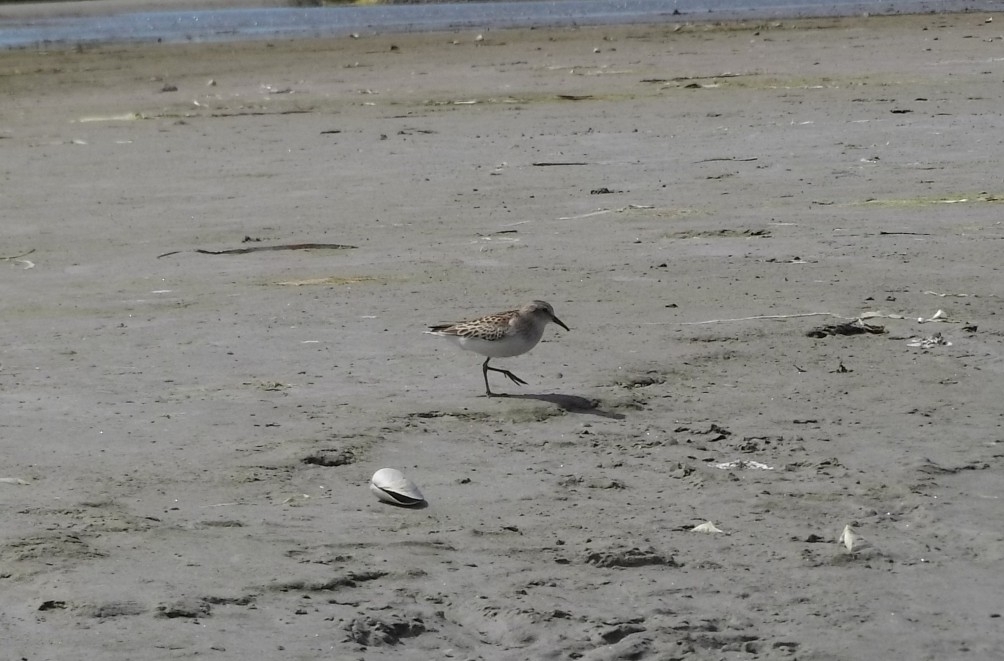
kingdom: Animalia
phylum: Chordata
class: Aves
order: Charadriiformes
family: Scolopacidae
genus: Calidris
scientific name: Calidris pusilla
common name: Semipalmated sandpiper
